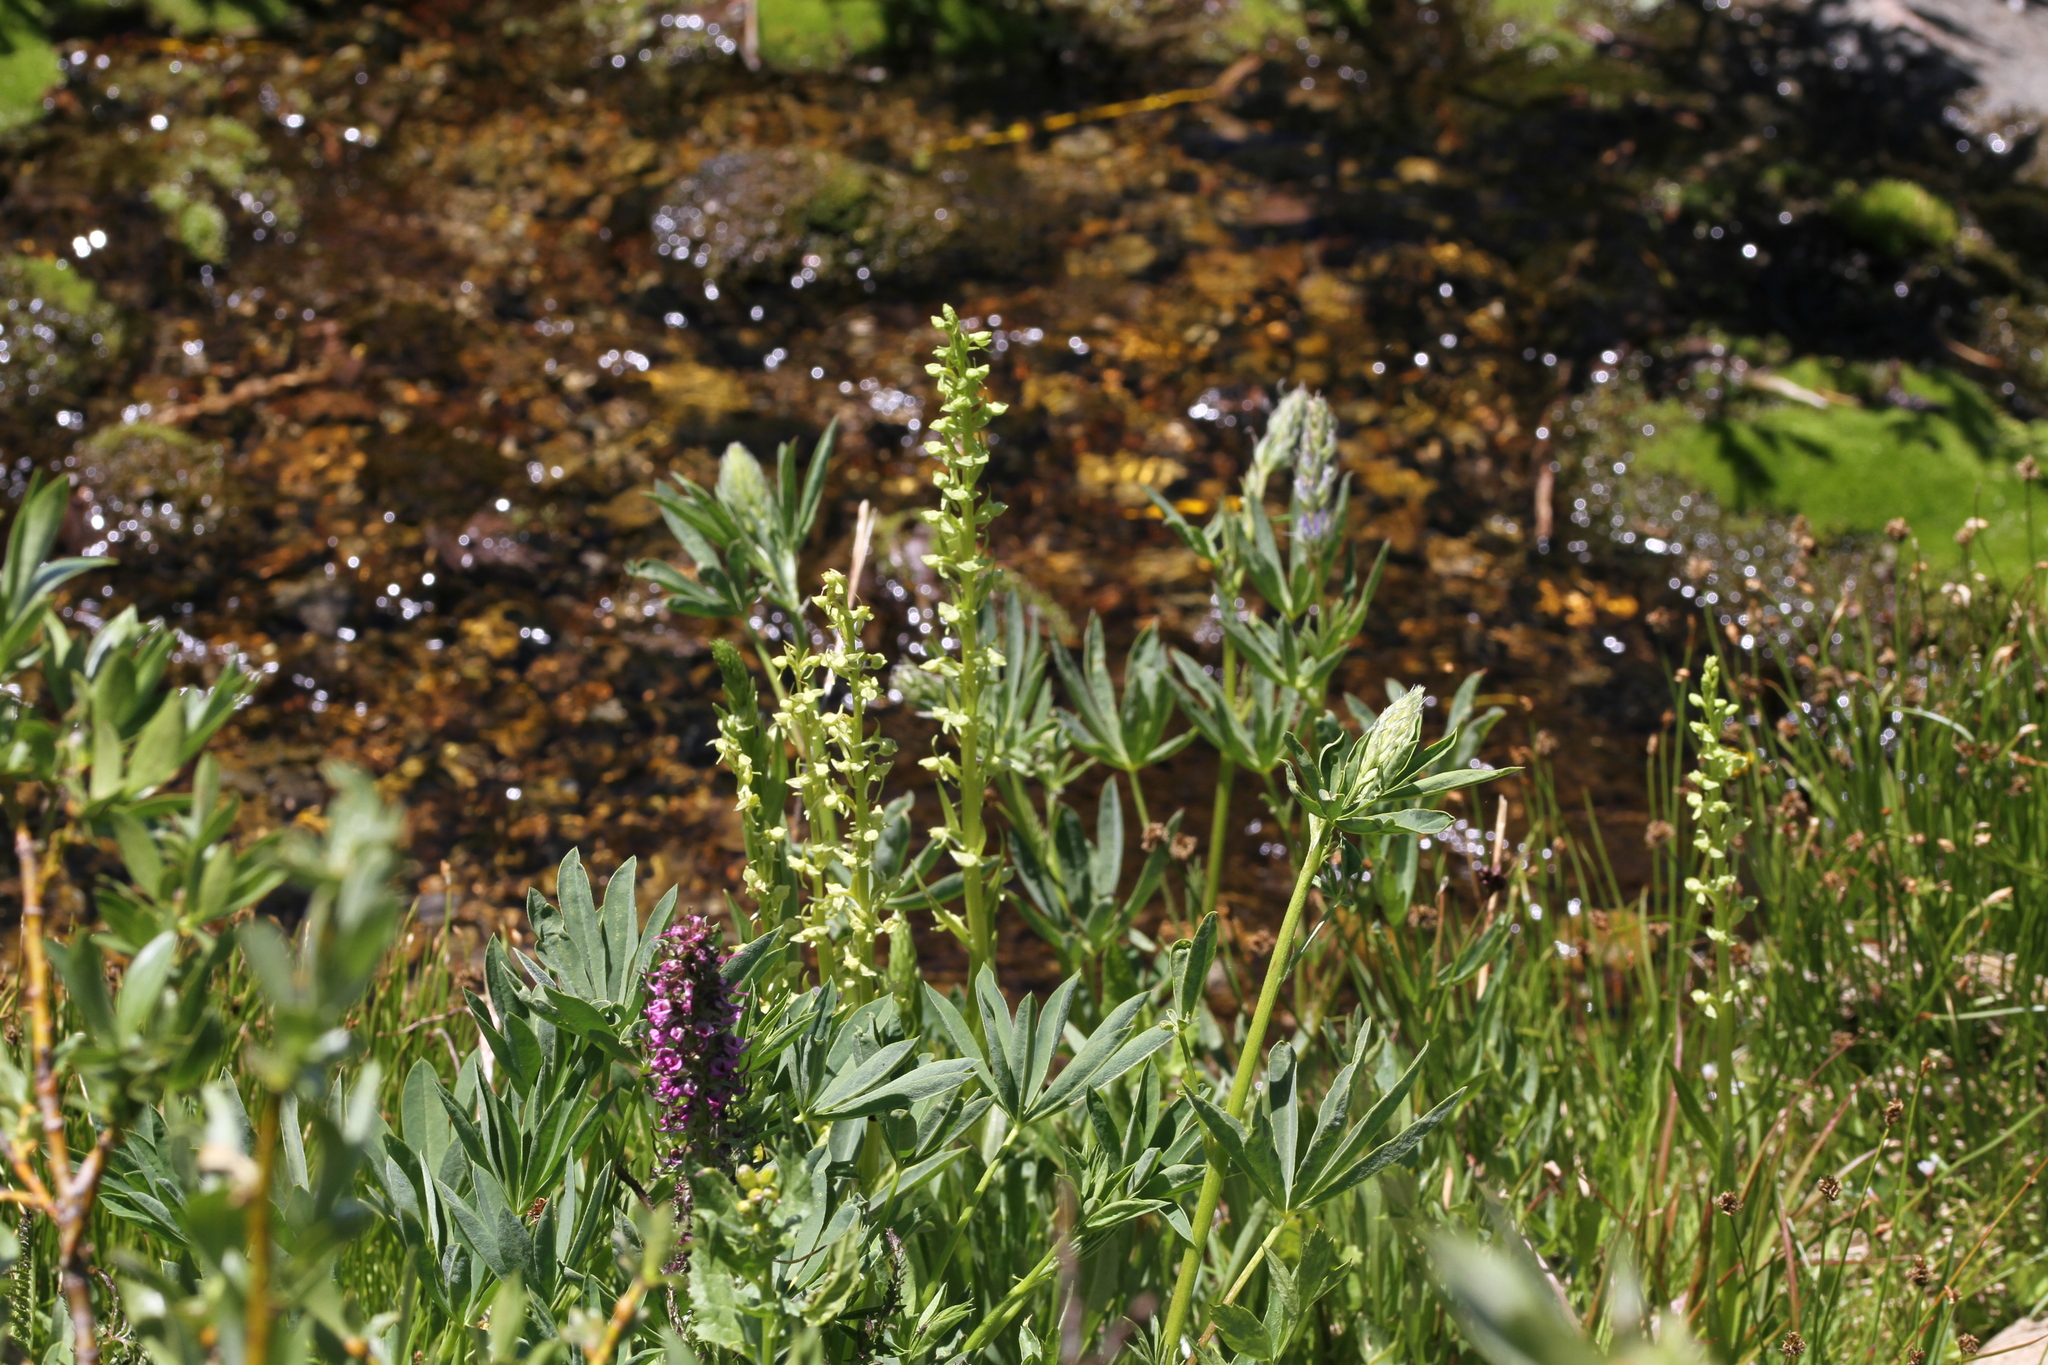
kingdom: Plantae
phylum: Tracheophyta
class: Liliopsida
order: Asparagales
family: Orchidaceae
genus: Platanthera
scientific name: Platanthera sparsiflora
